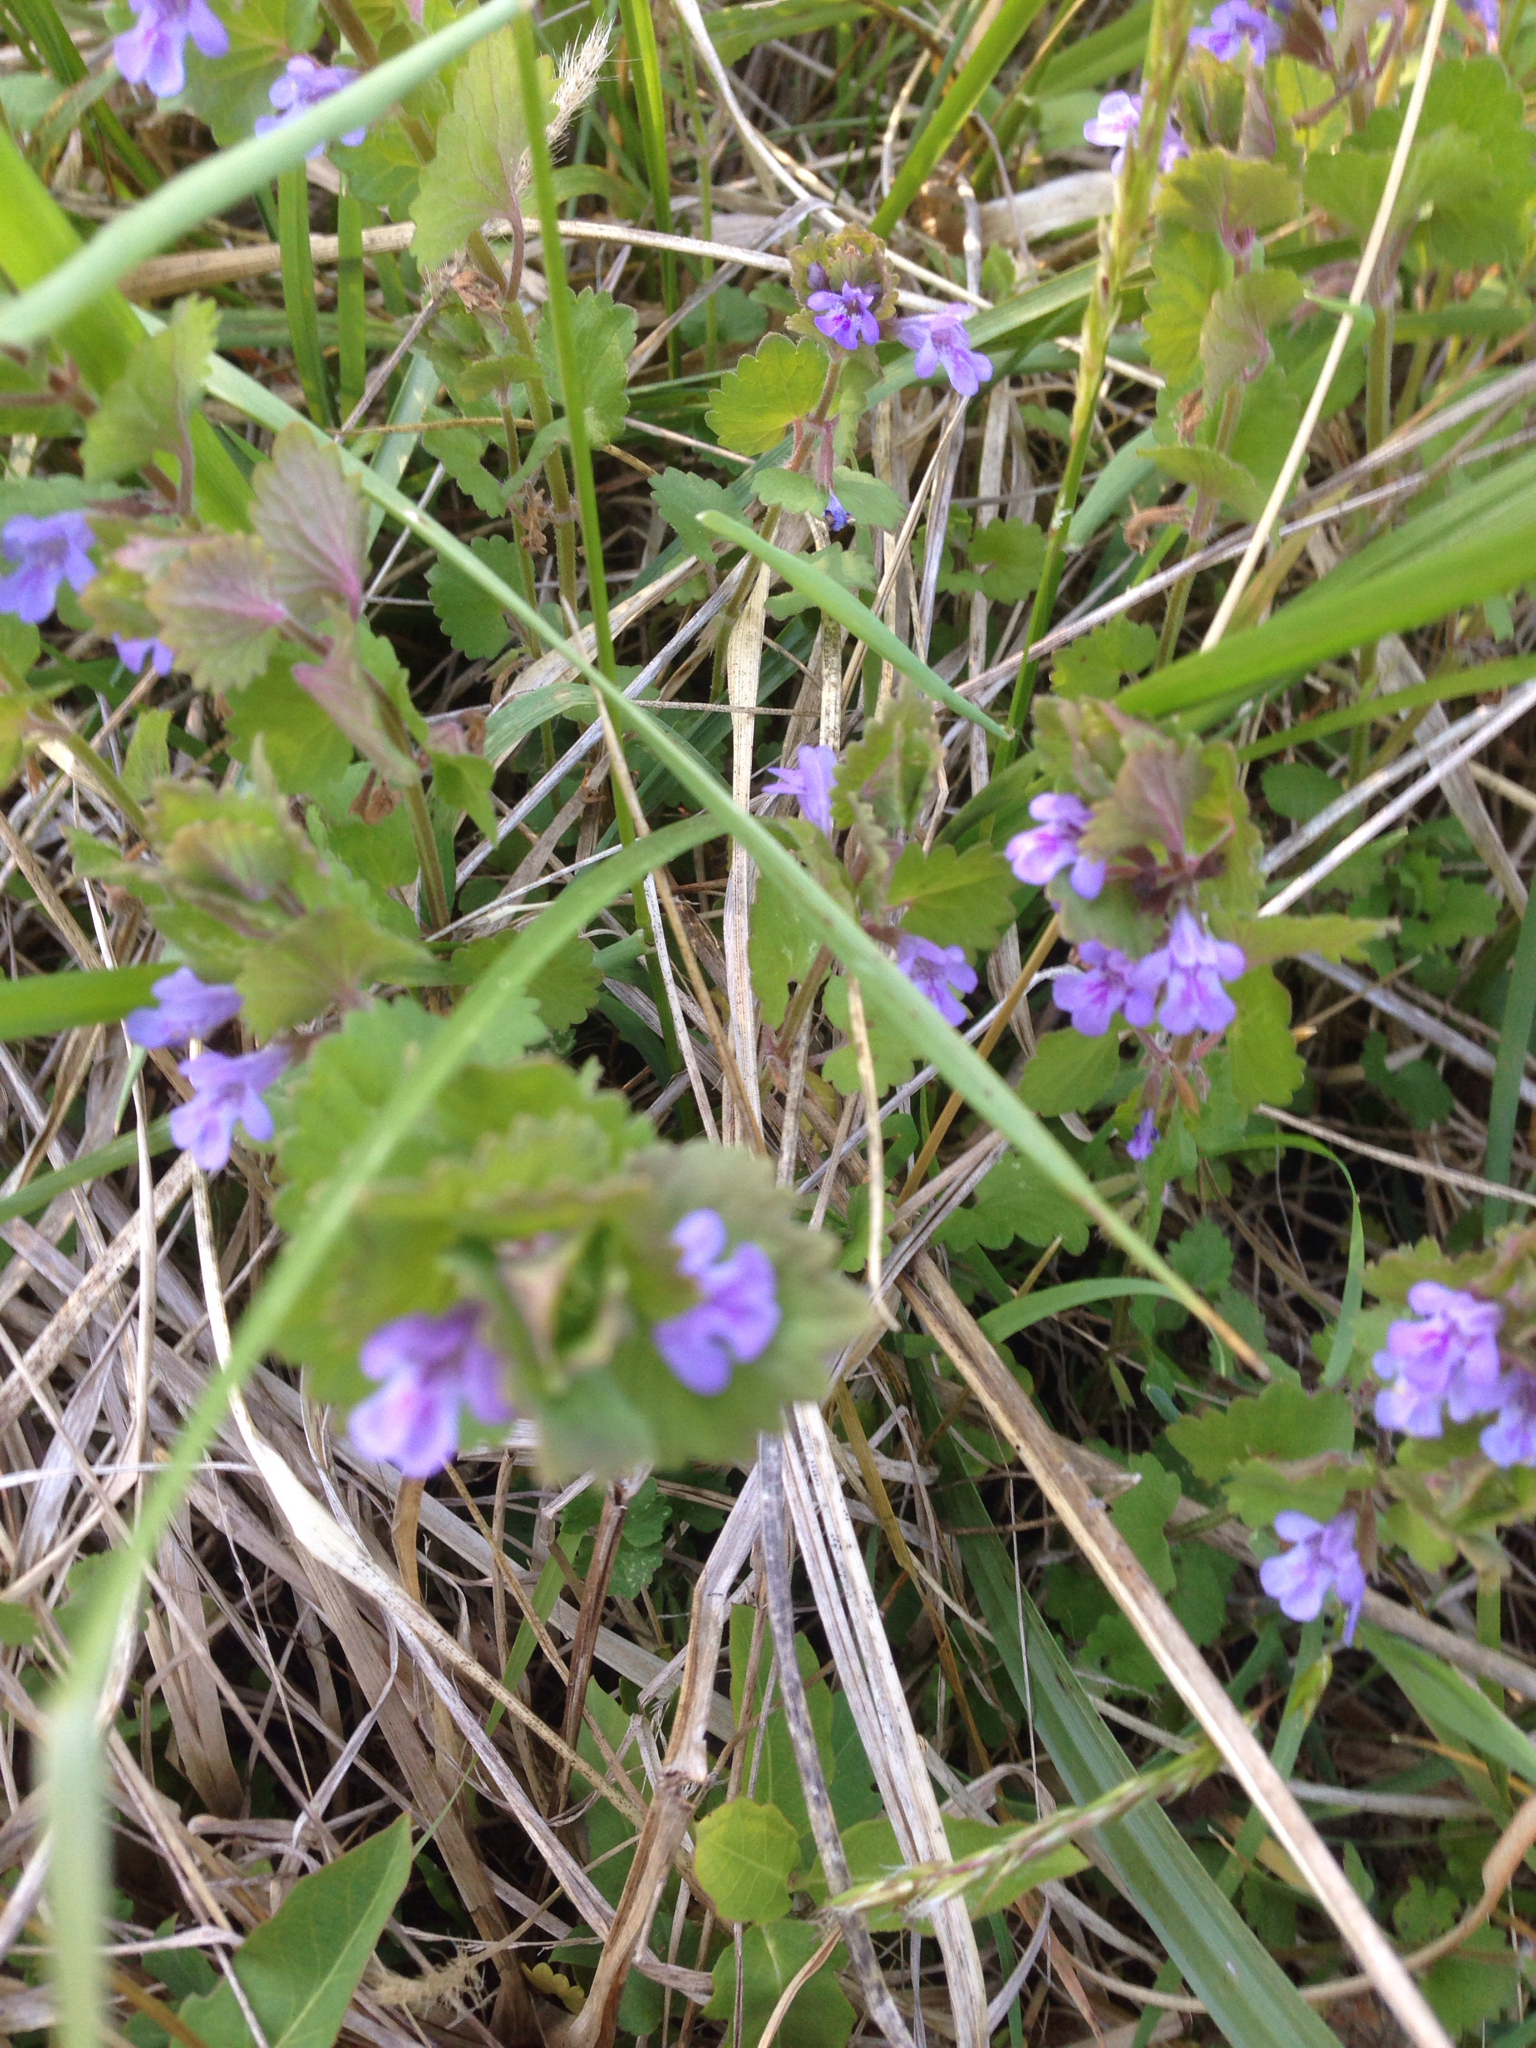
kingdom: Plantae
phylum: Tracheophyta
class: Magnoliopsida
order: Lamiales
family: Lamiaceae
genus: Glechoma
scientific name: Glechoma hederacea
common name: Ground ivy
